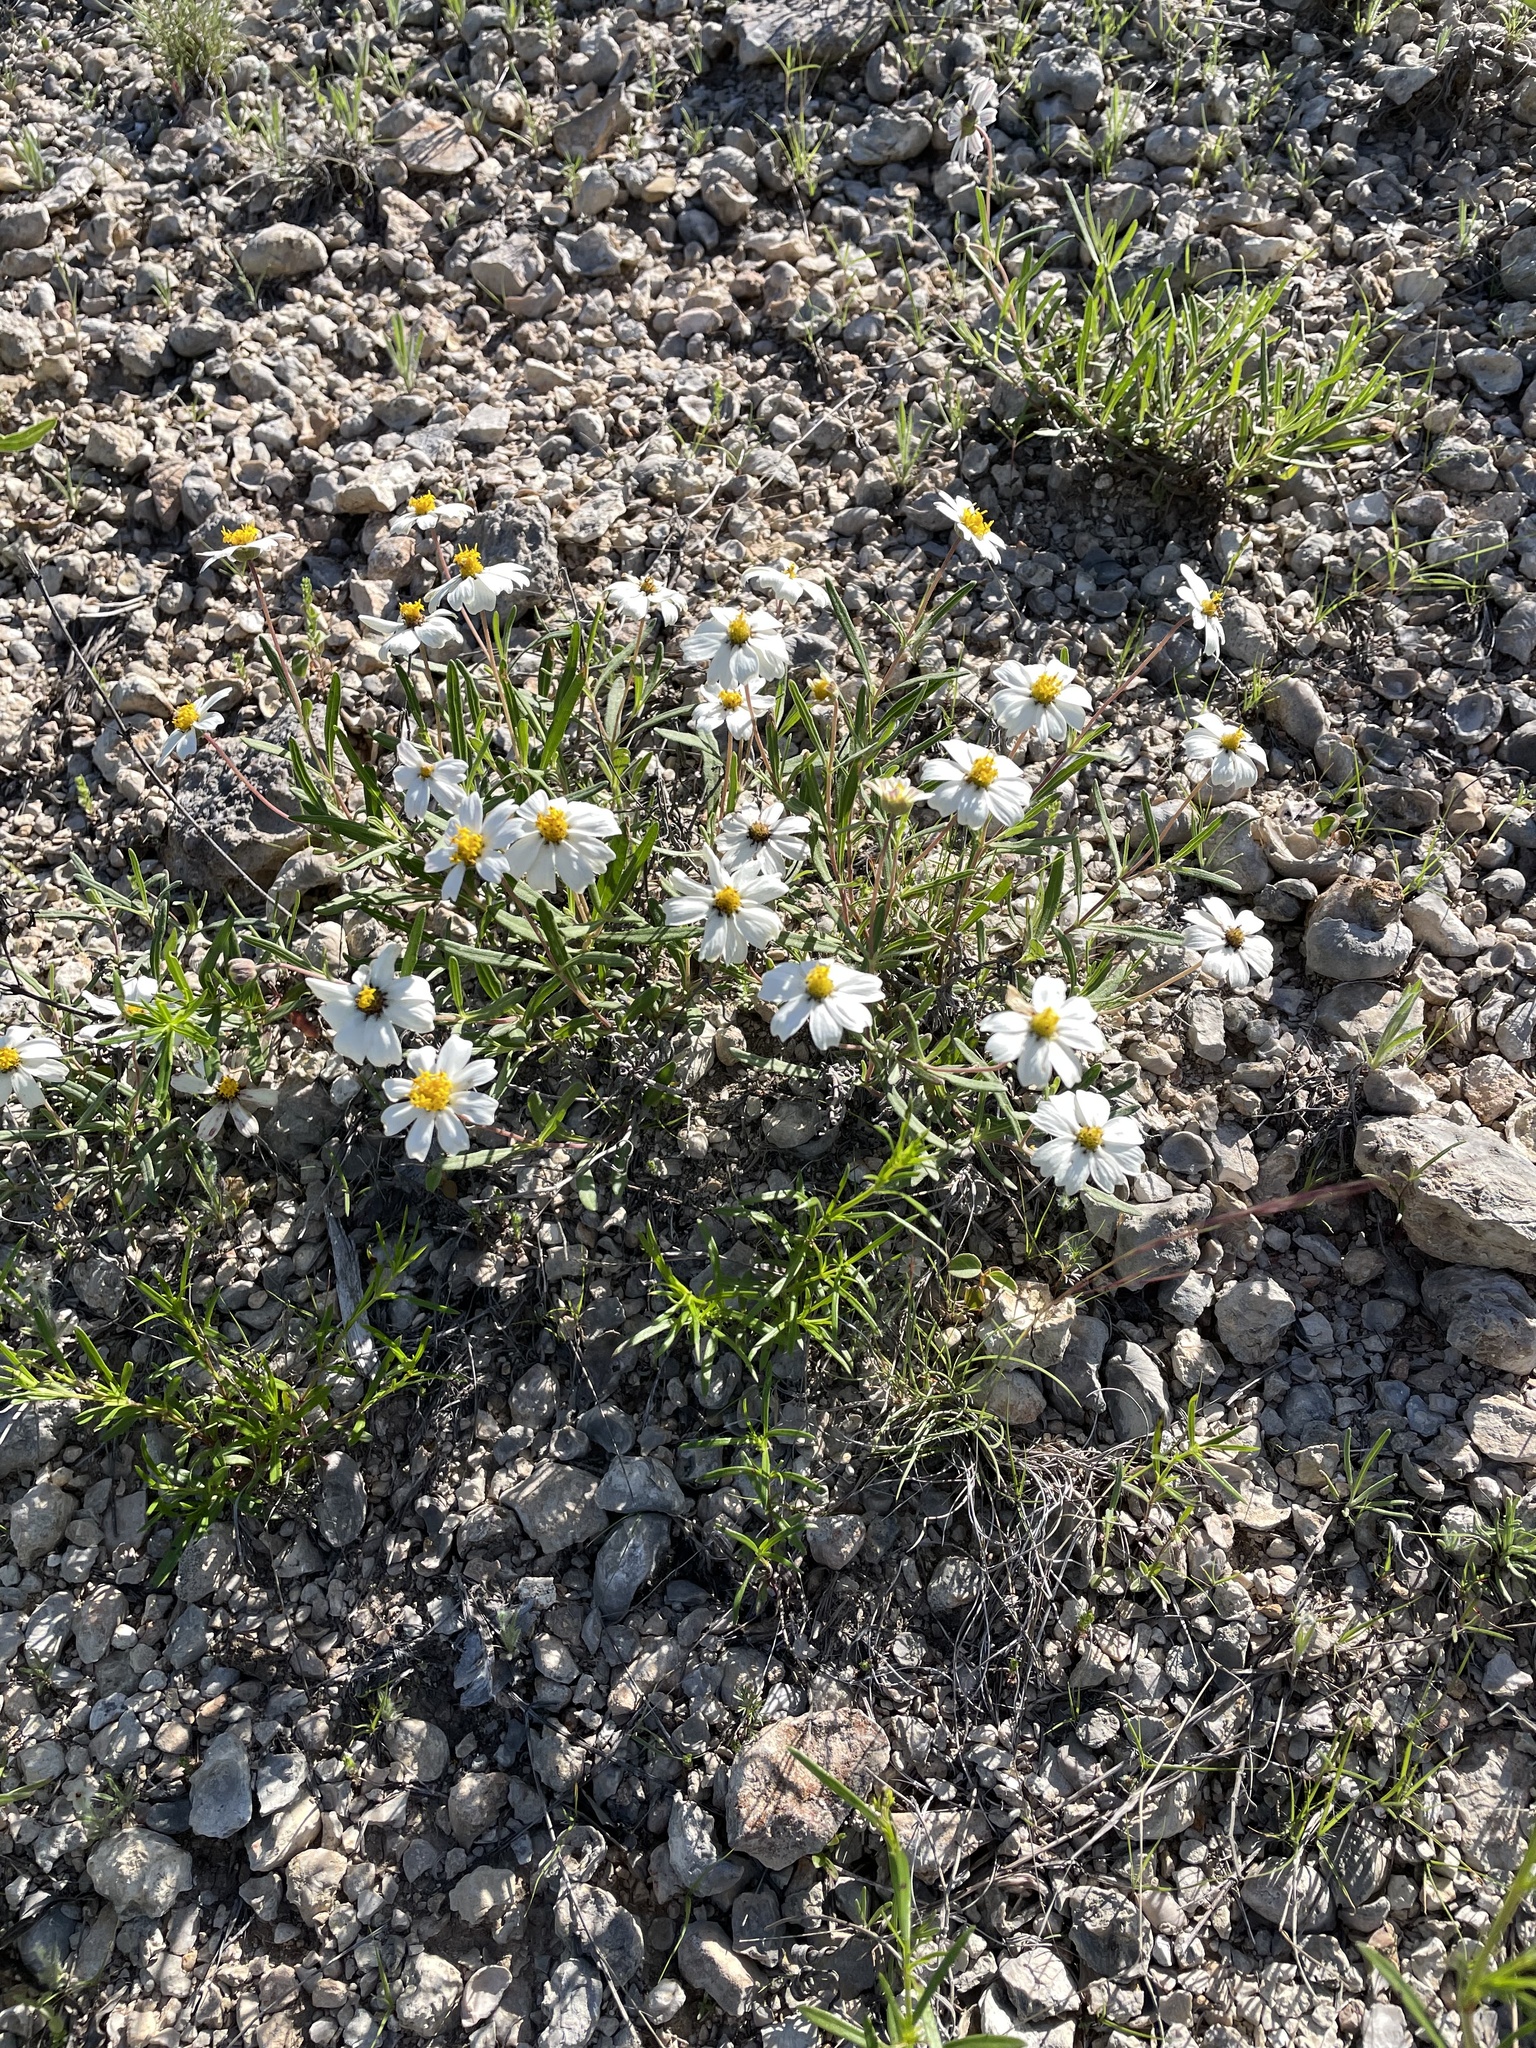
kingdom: Plantae
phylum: Tracheophyta
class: Magnoliopsida
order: Asterales
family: Asteraceae
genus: Melampodium
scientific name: Melampodium leucanthum
